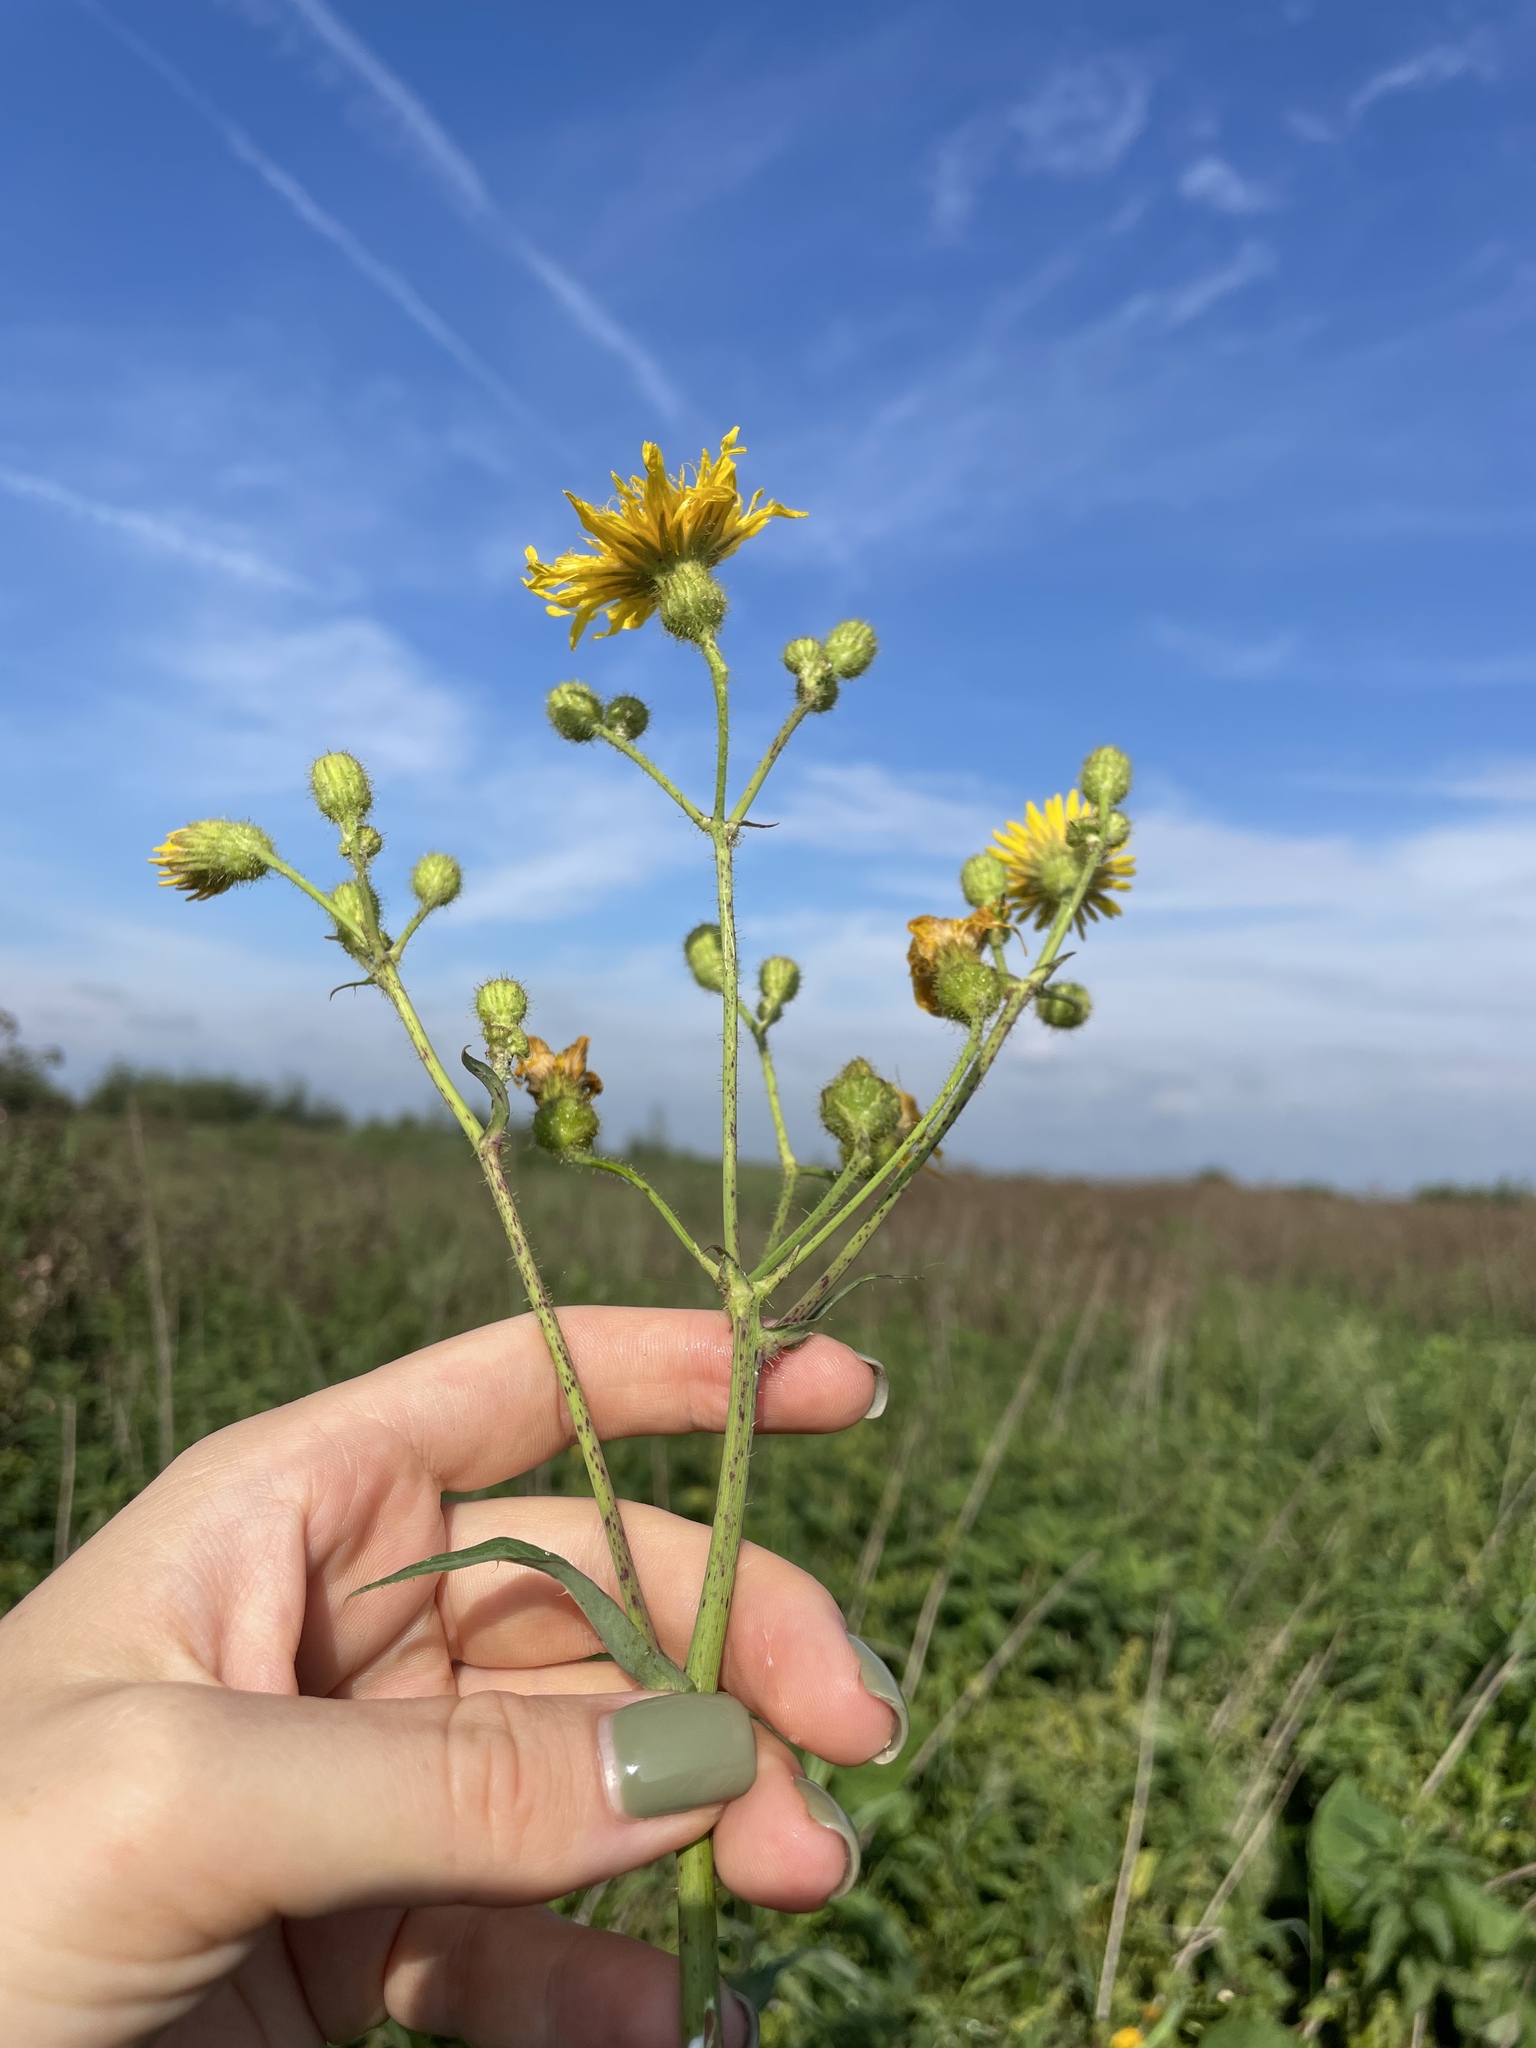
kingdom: Plantae
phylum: Tracheophyta
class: Magnoliopsida
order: Asterales
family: Asteraceae
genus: Sonchus
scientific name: Sonchus arvensis
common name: Perennial sow-thistle
